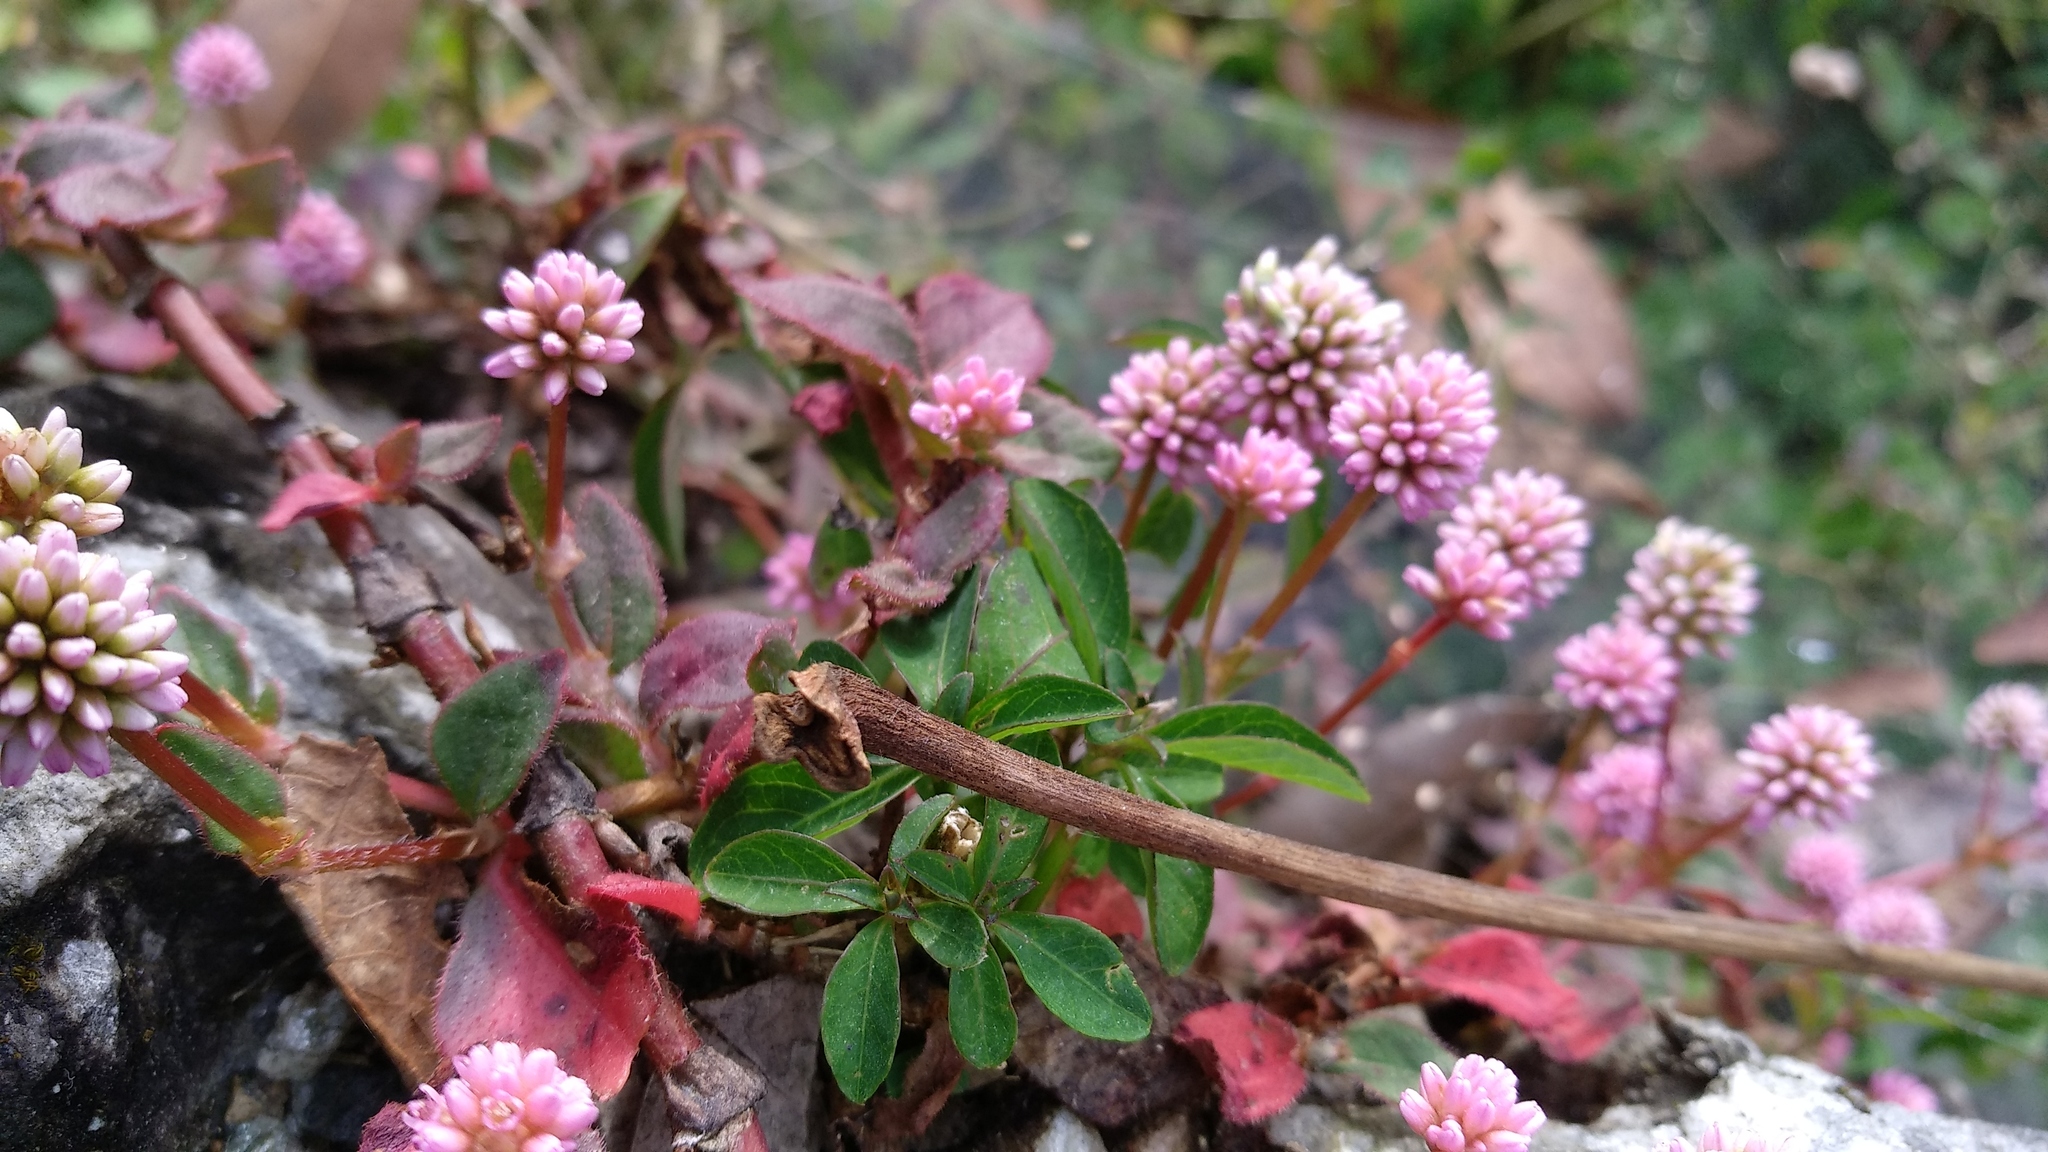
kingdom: Plantae
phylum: Tracheophyta
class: Magnoliopsida
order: Caryophyllales
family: Polygonaceae
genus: Persicaria
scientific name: Persicaria capitata
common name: Pinkhead smartweed
